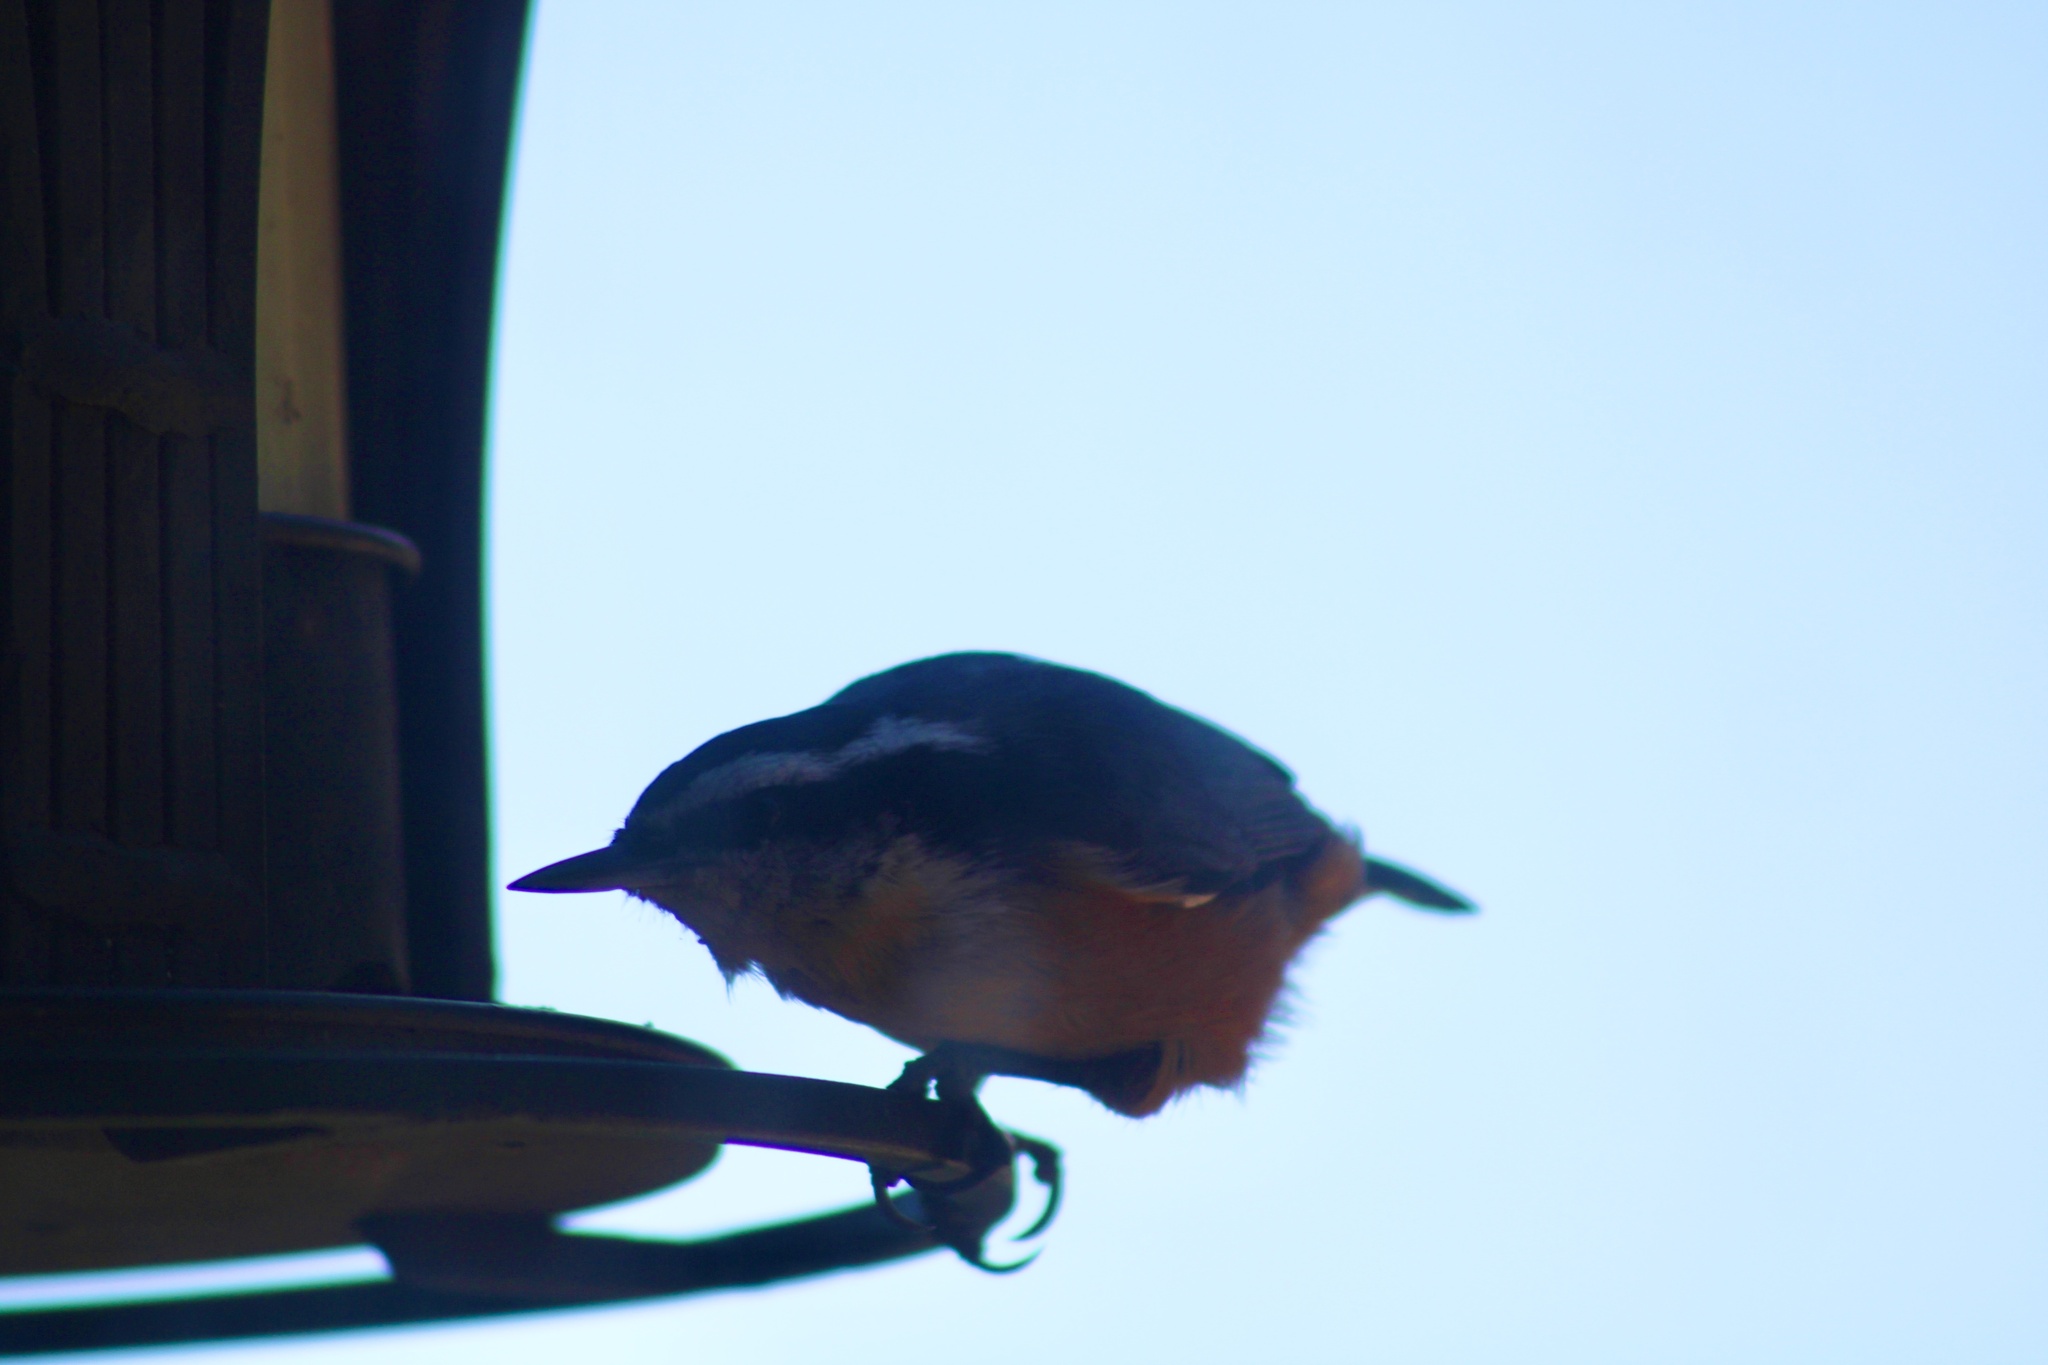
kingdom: Animalia
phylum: Chordata
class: Aves
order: Passeriformes
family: Sittidae
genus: Sitta
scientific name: Sitta canadensis
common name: Red-breasted nuthatch
